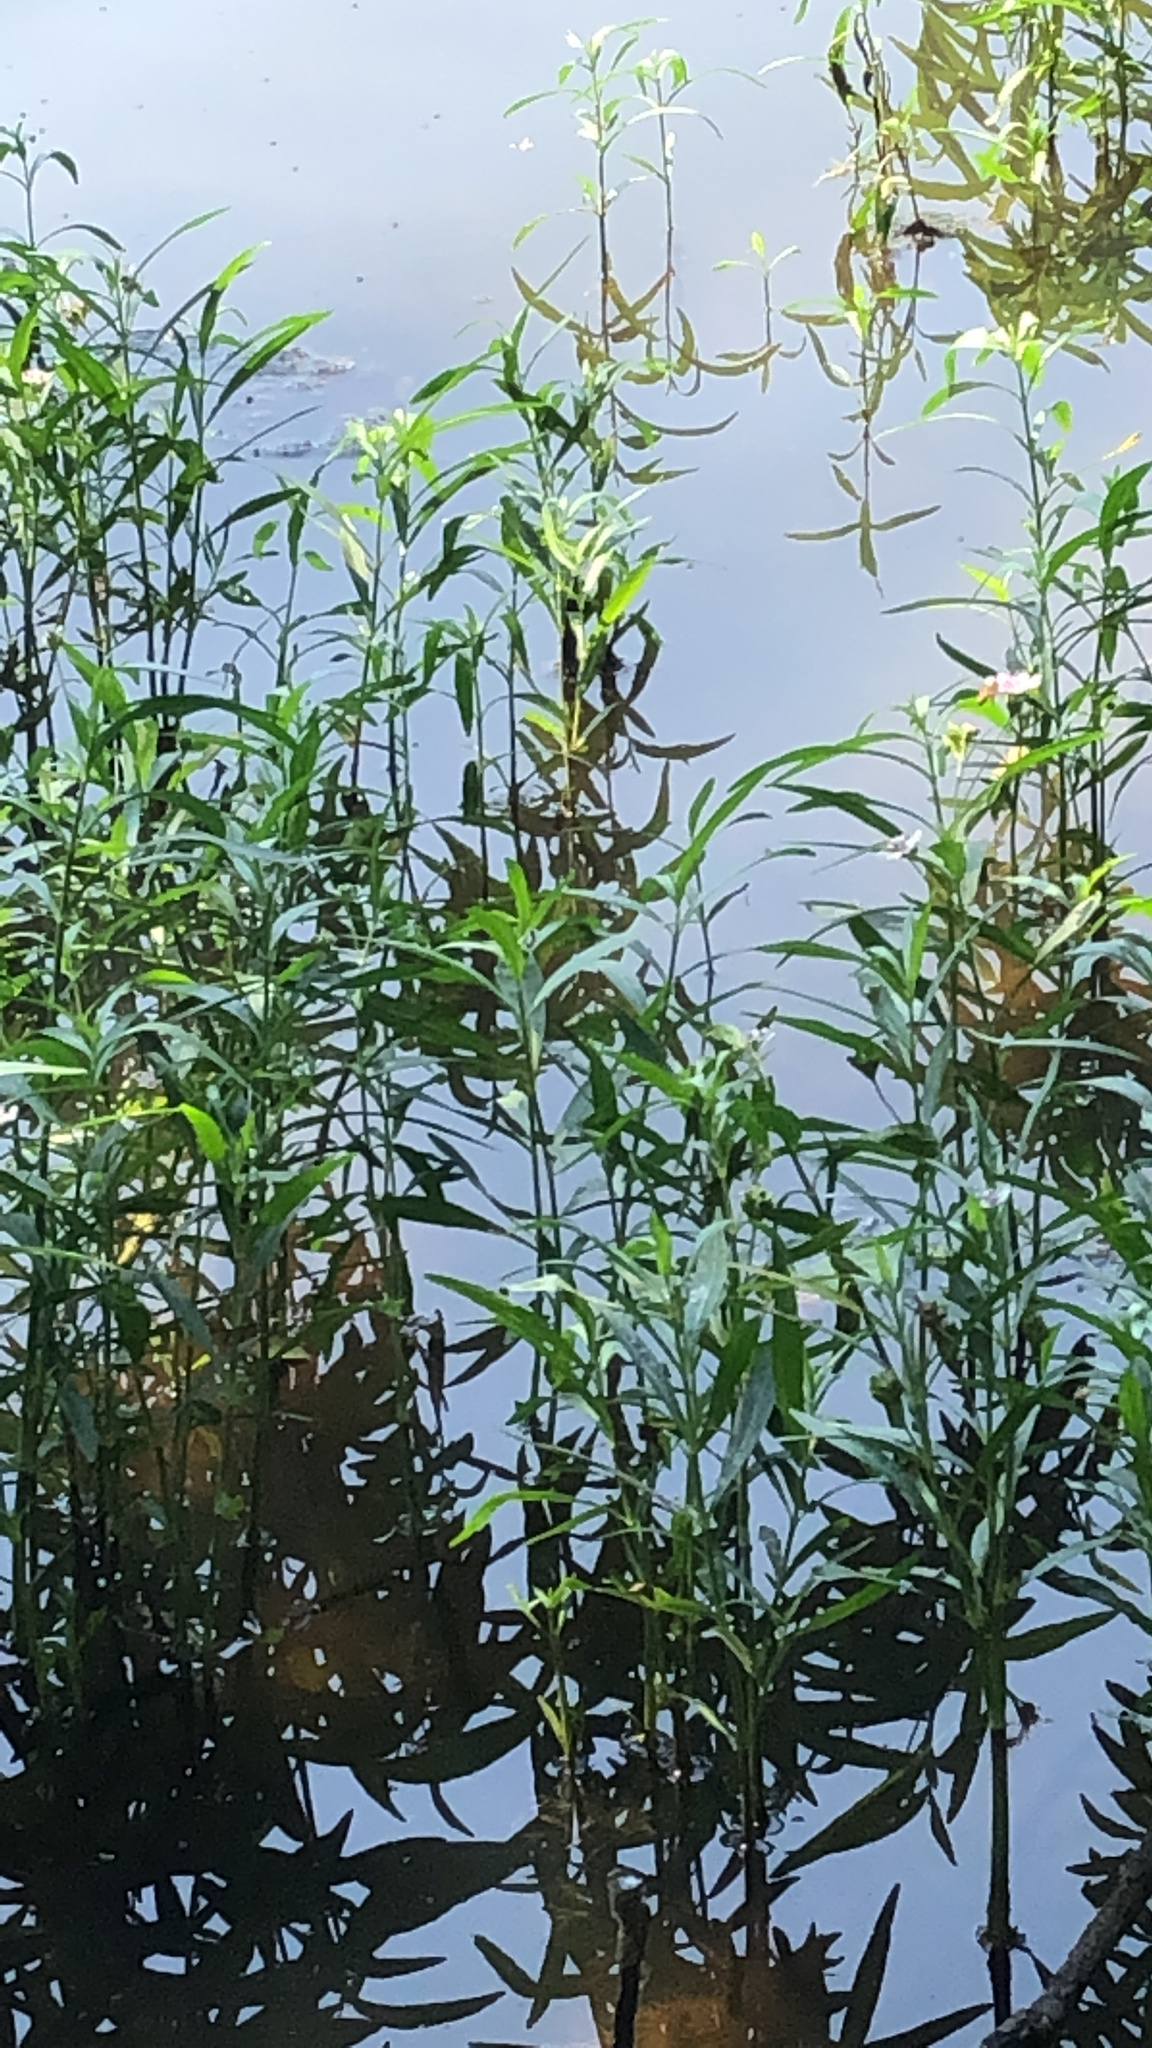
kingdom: Plantae
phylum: Tracheophyta
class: Magnoliopsida
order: Lamiales
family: Acanthaceae
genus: Dianthera
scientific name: Dianthera americana
